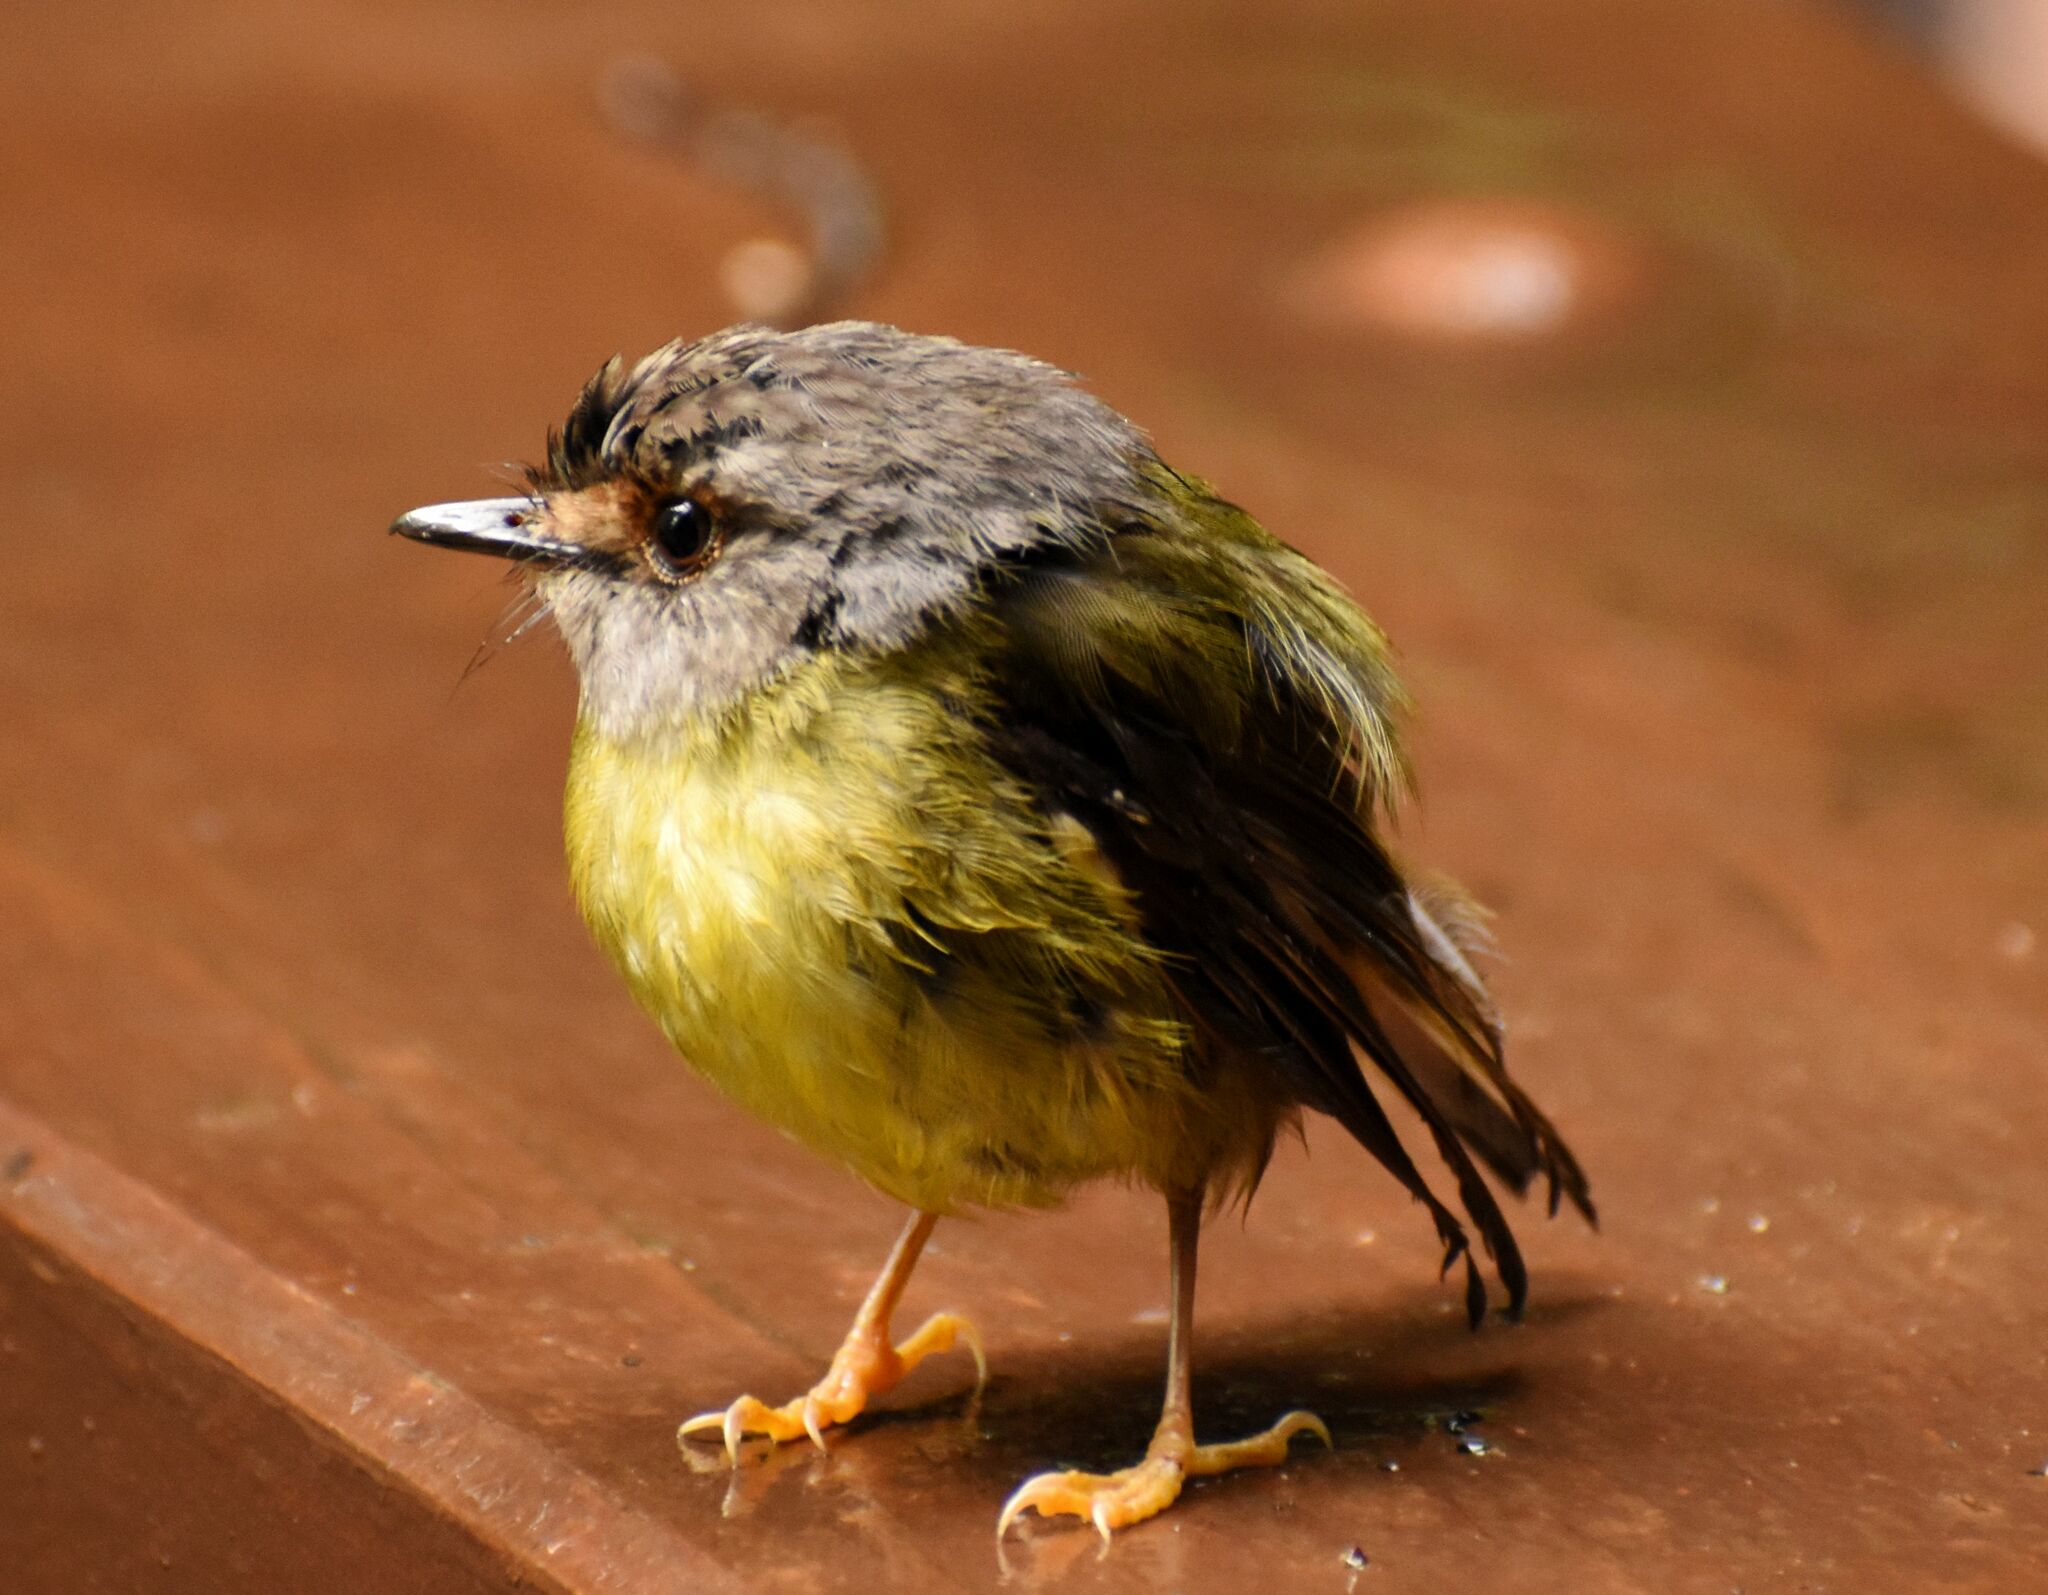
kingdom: Animalia
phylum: Chordata
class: Aves
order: Passeriformes
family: Petroicidae
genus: Eopsaltria
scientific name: Eopsaltria
